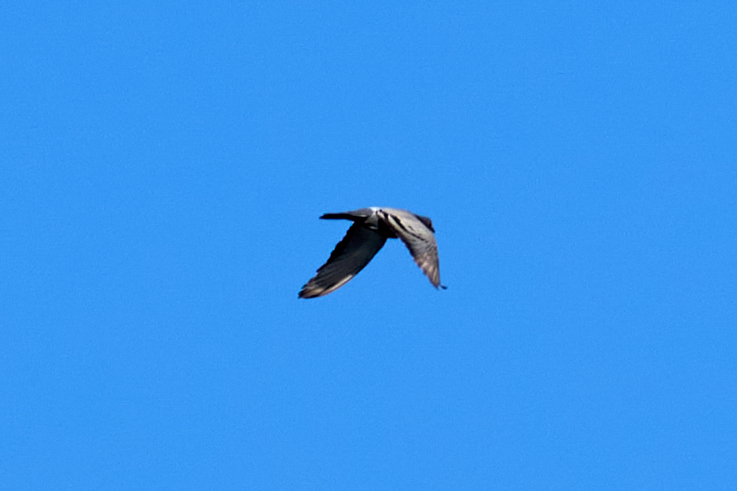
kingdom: Animalia
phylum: Chordata
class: Aves
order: Columbiformes
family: Columbidae
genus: Columba
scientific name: Columba livia
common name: Rock pigeon
